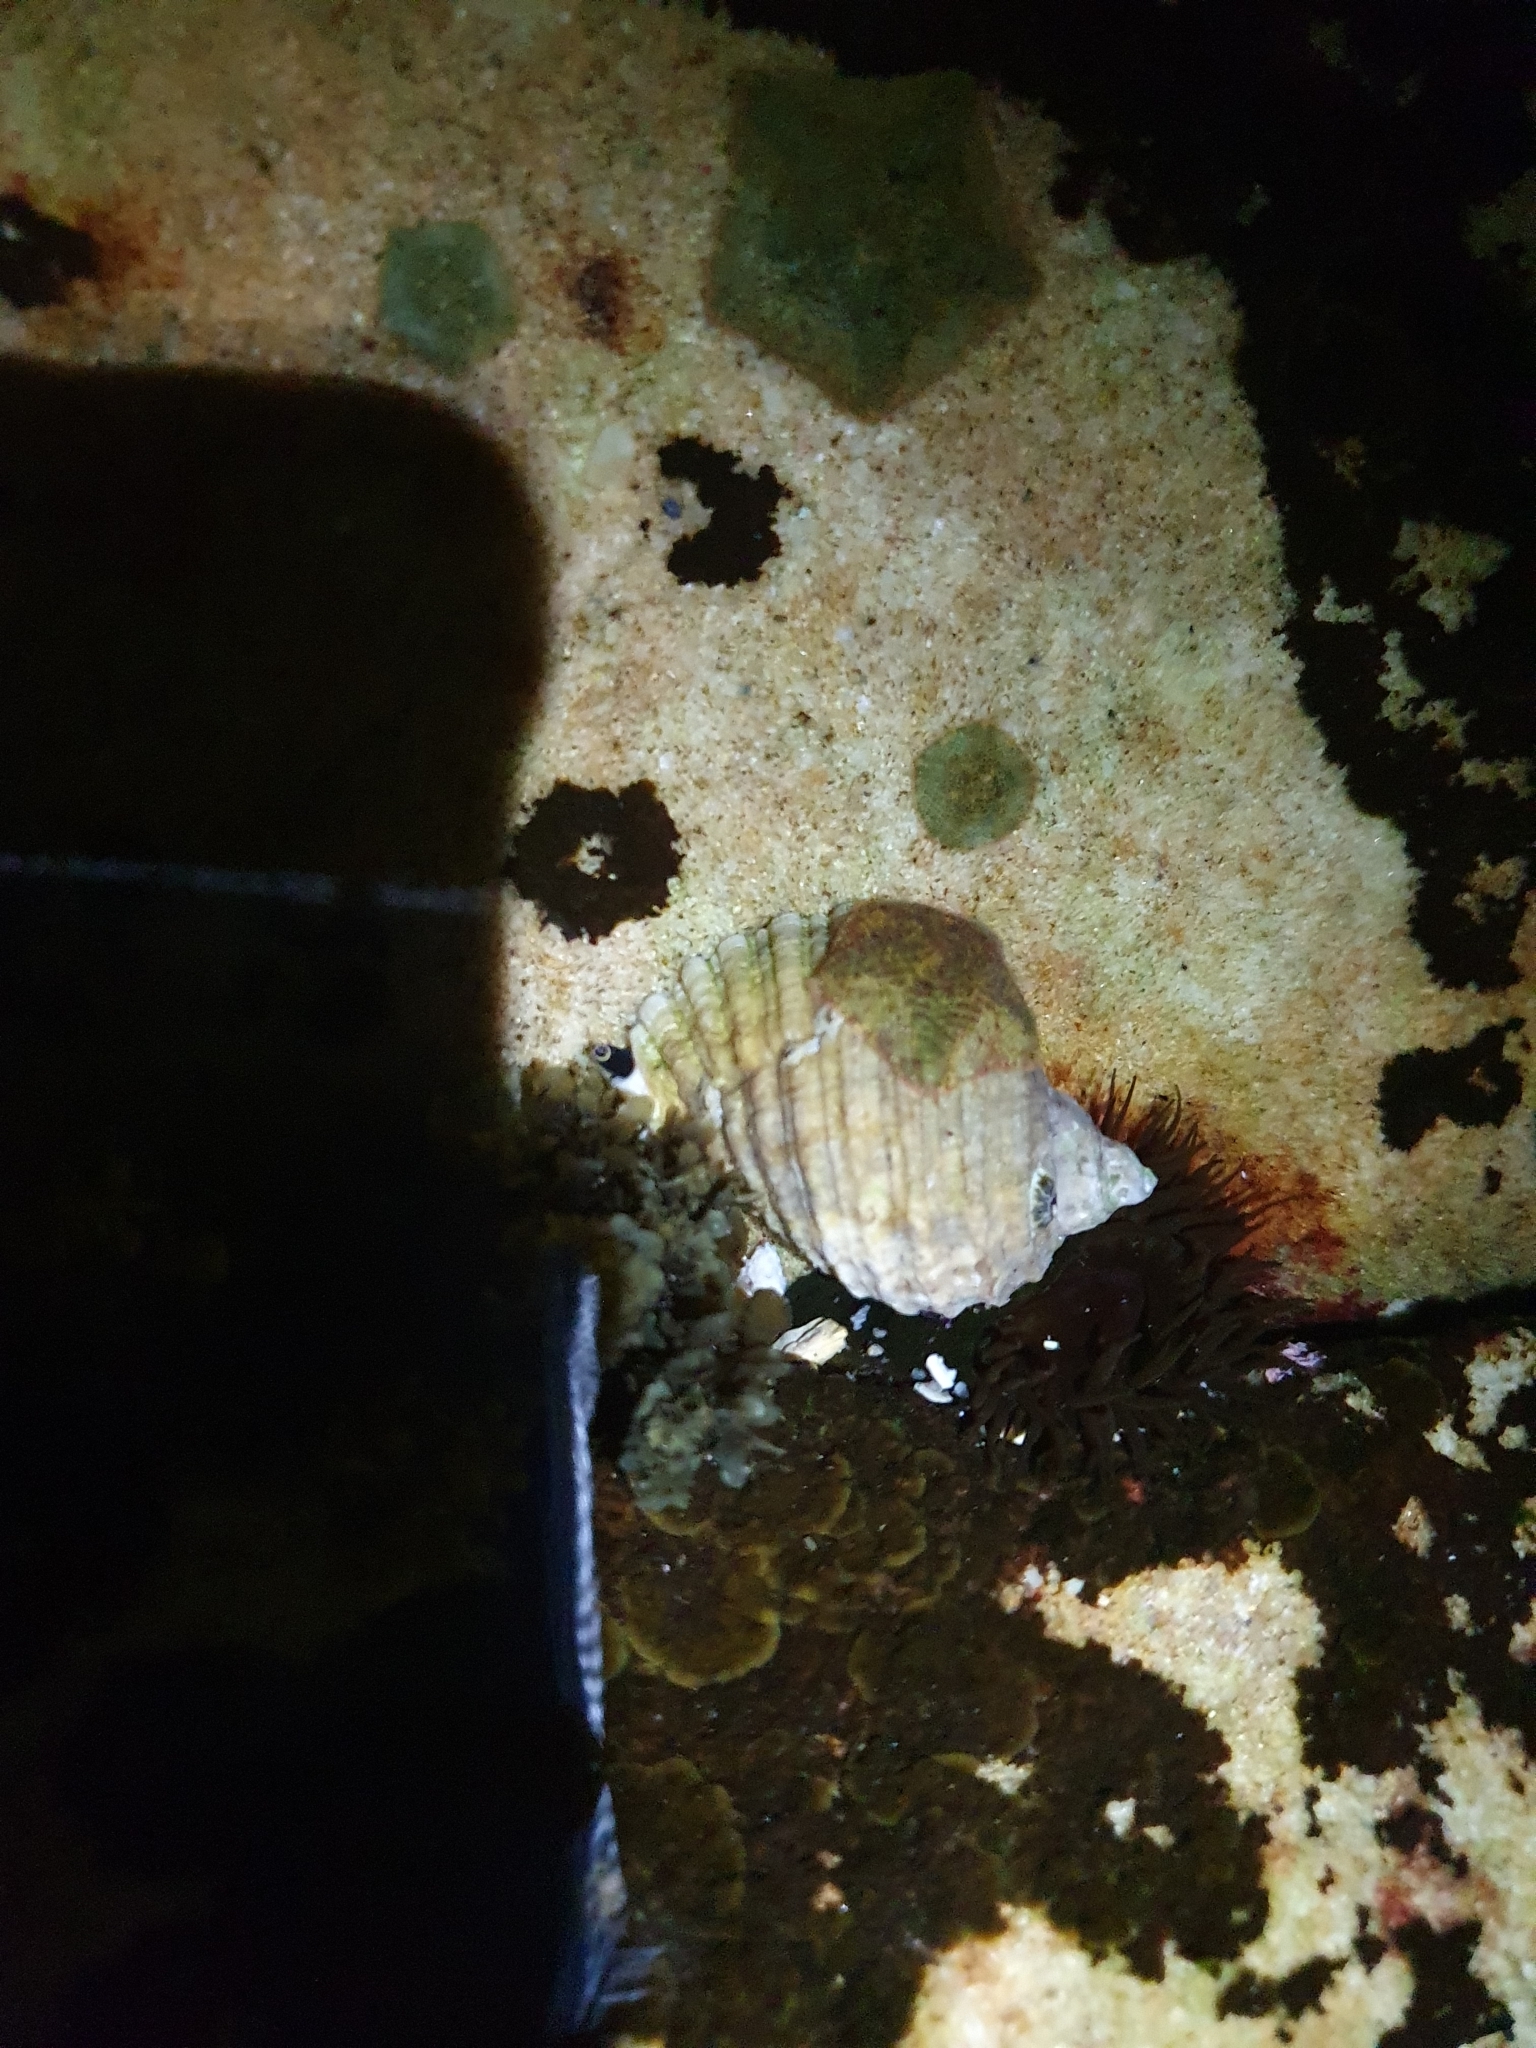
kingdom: Animalia
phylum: Mollusca
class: Gastropoda
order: Neogastropoda
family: Muricidae
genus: Dicathais
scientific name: Dicathais orbita
